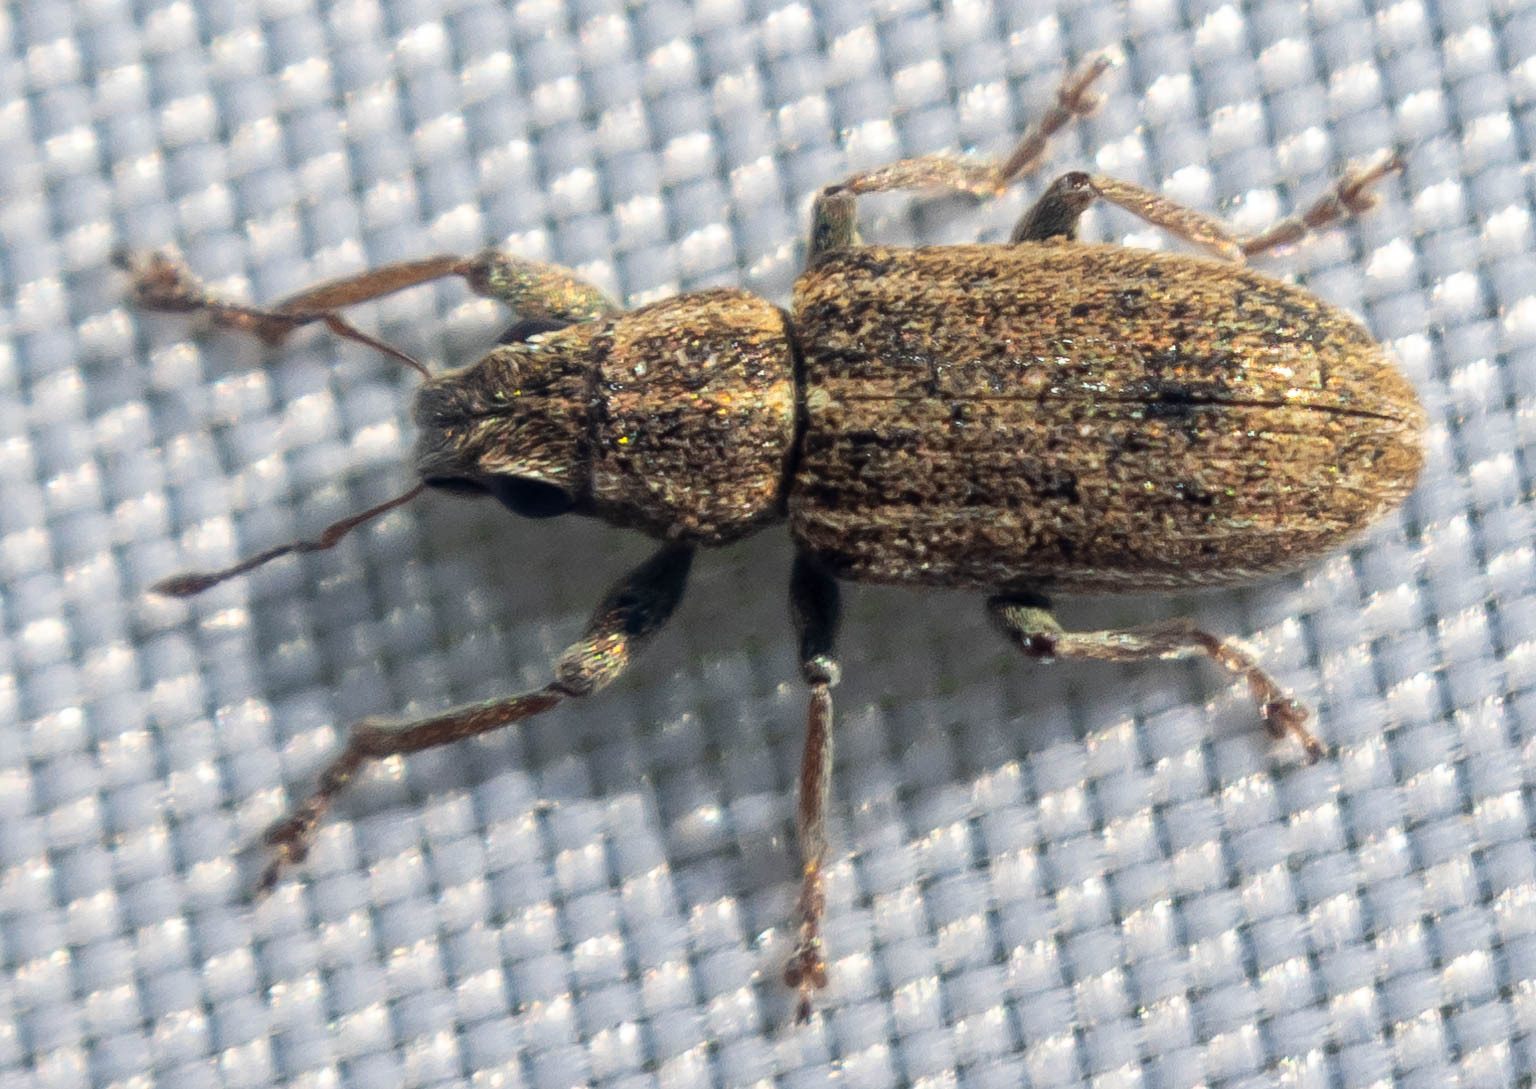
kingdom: Animalia
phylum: Arthropoda
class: Insecta
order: Coleoptera
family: Curculionidae
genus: Sitona
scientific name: Sitona lineatus
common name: Weevil
